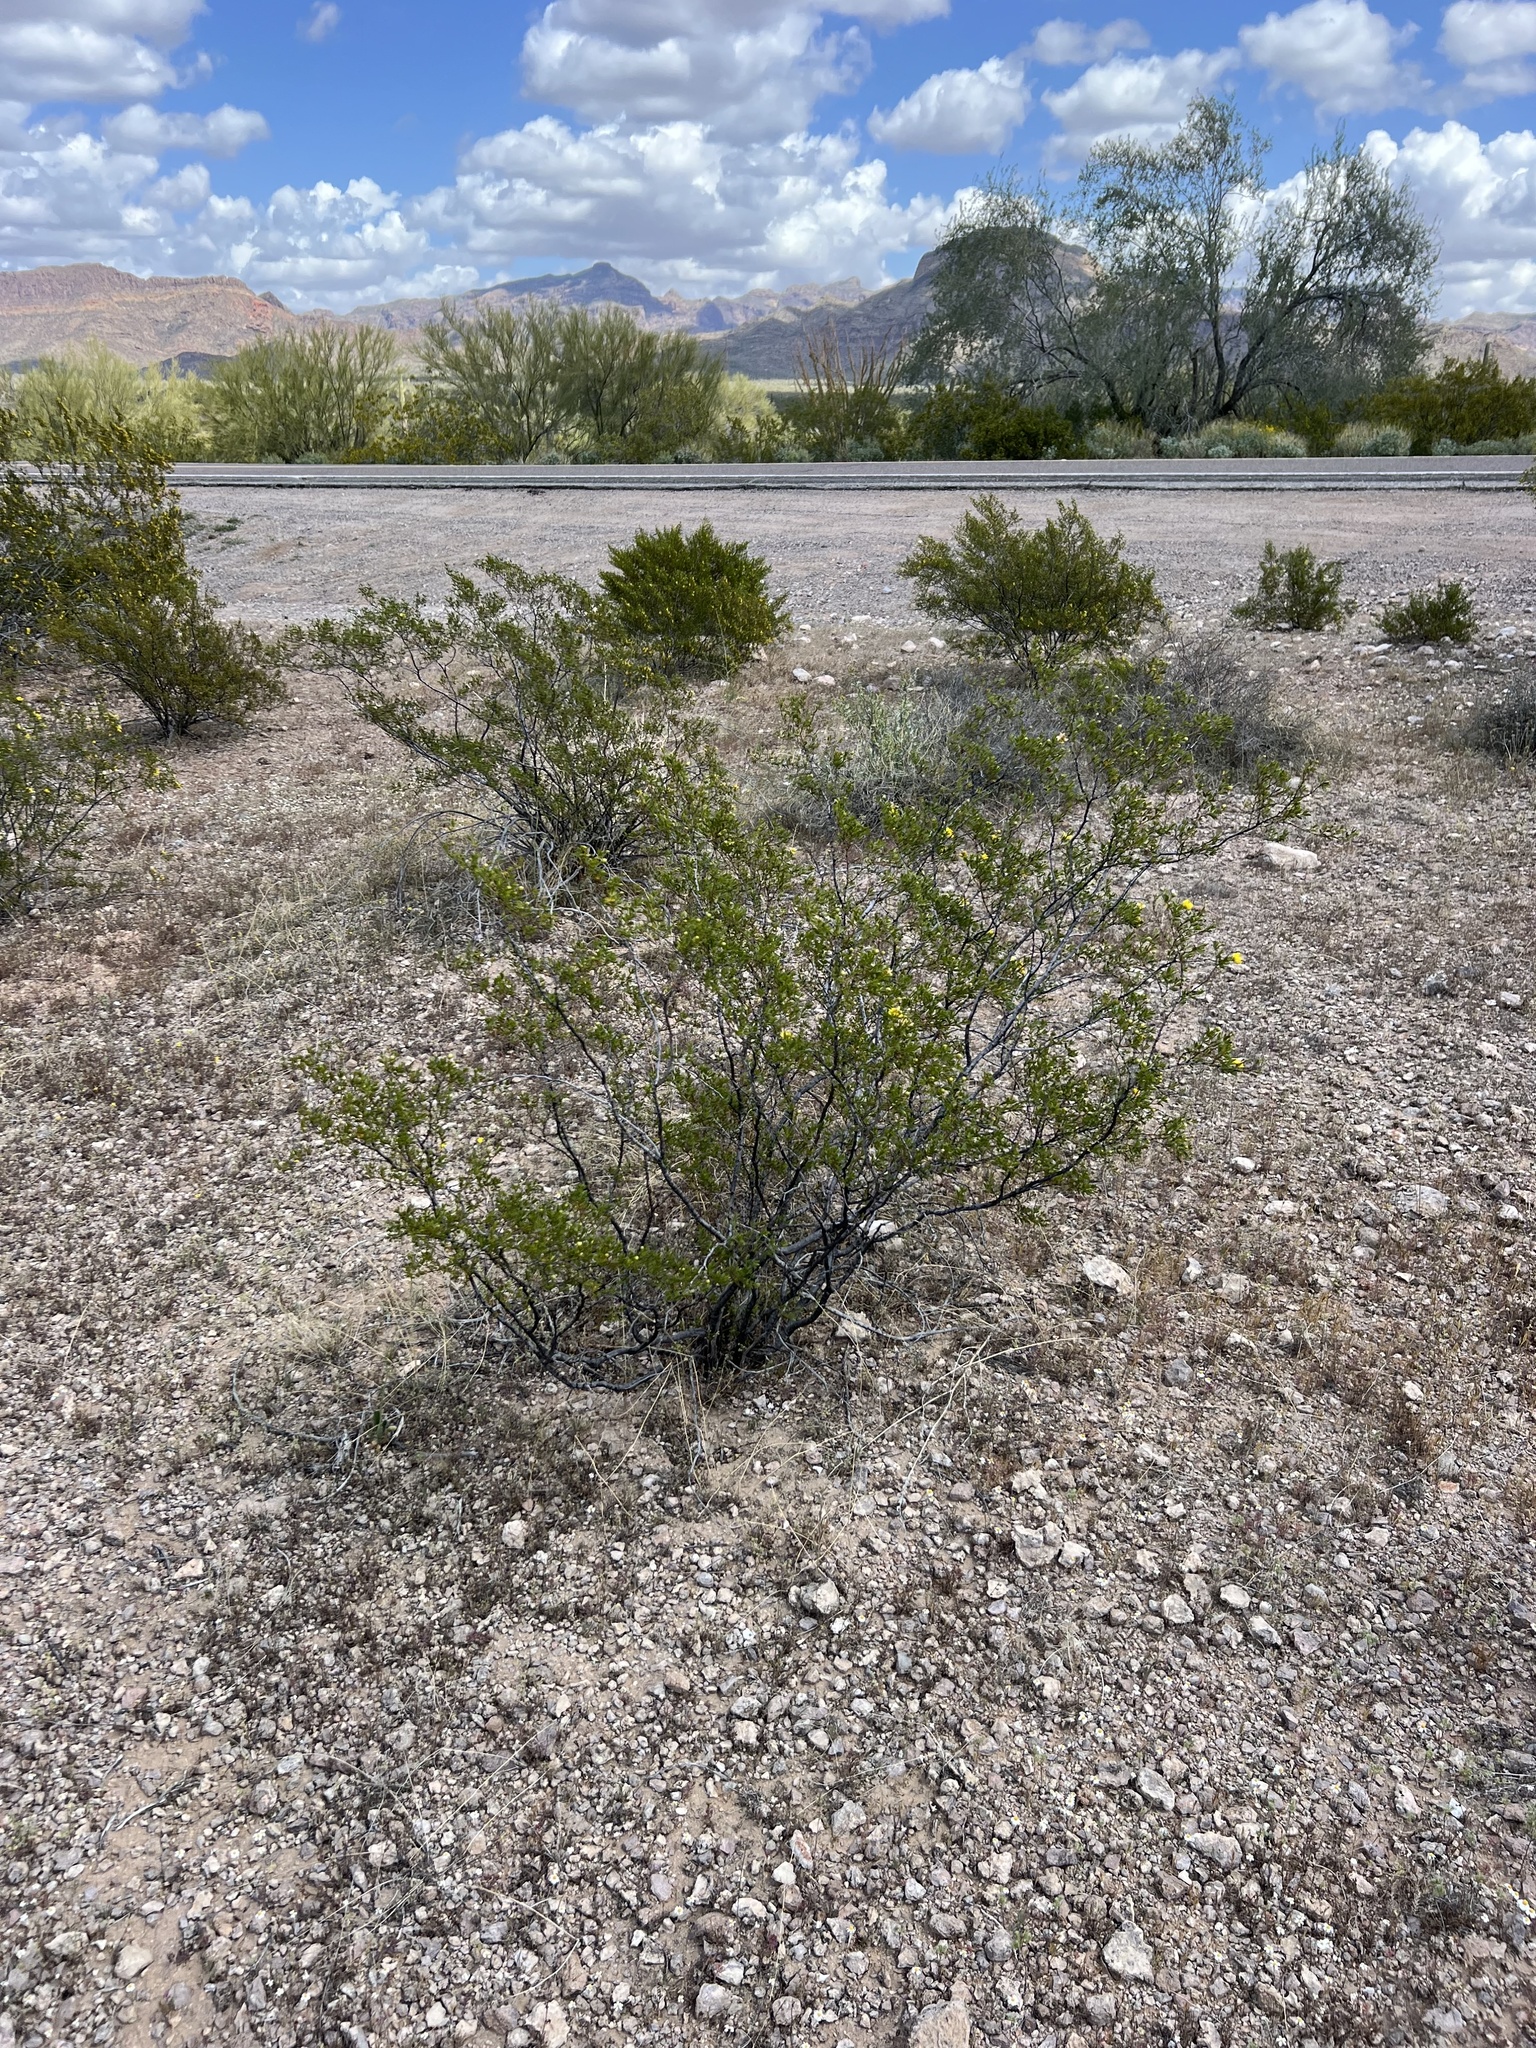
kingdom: Plantae
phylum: Tracheophyta
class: Magnoliopsida
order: Zygophyllales
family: Zygophyllaceae
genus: Larrea
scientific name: Larrea tridentata
